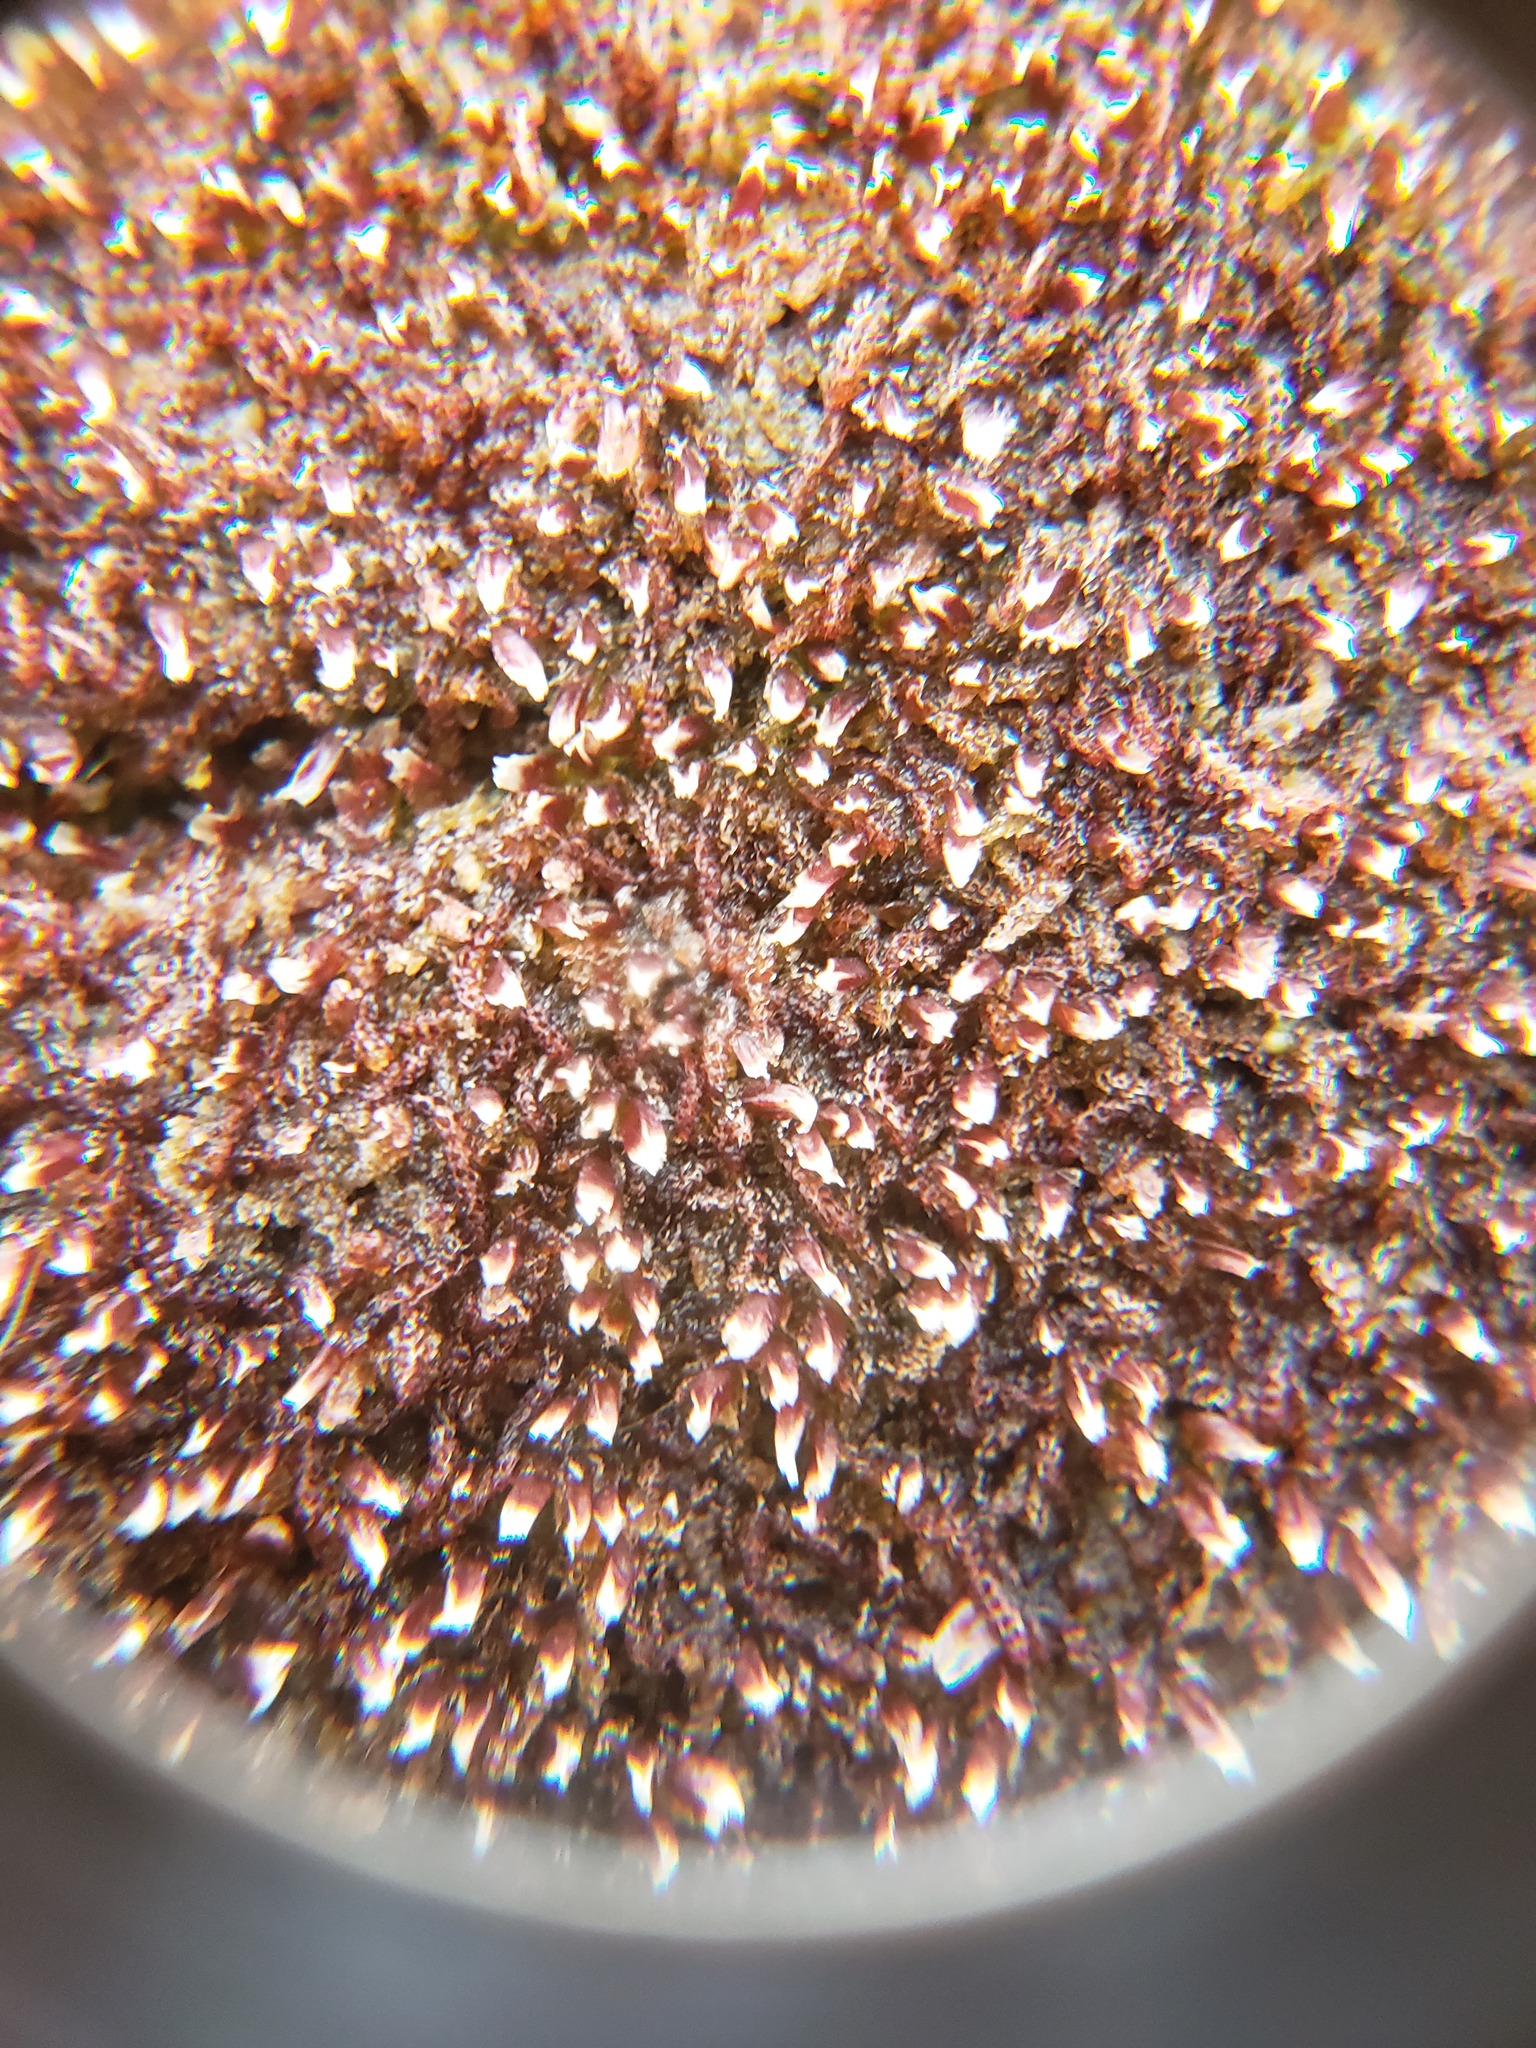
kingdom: Plantae
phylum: Marchantiophyta
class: Jungermanniopsida
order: Jungermanniales
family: Cephaloziaceae
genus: Nowellia
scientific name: Nowellia curvifolia
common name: Wood rustwort
